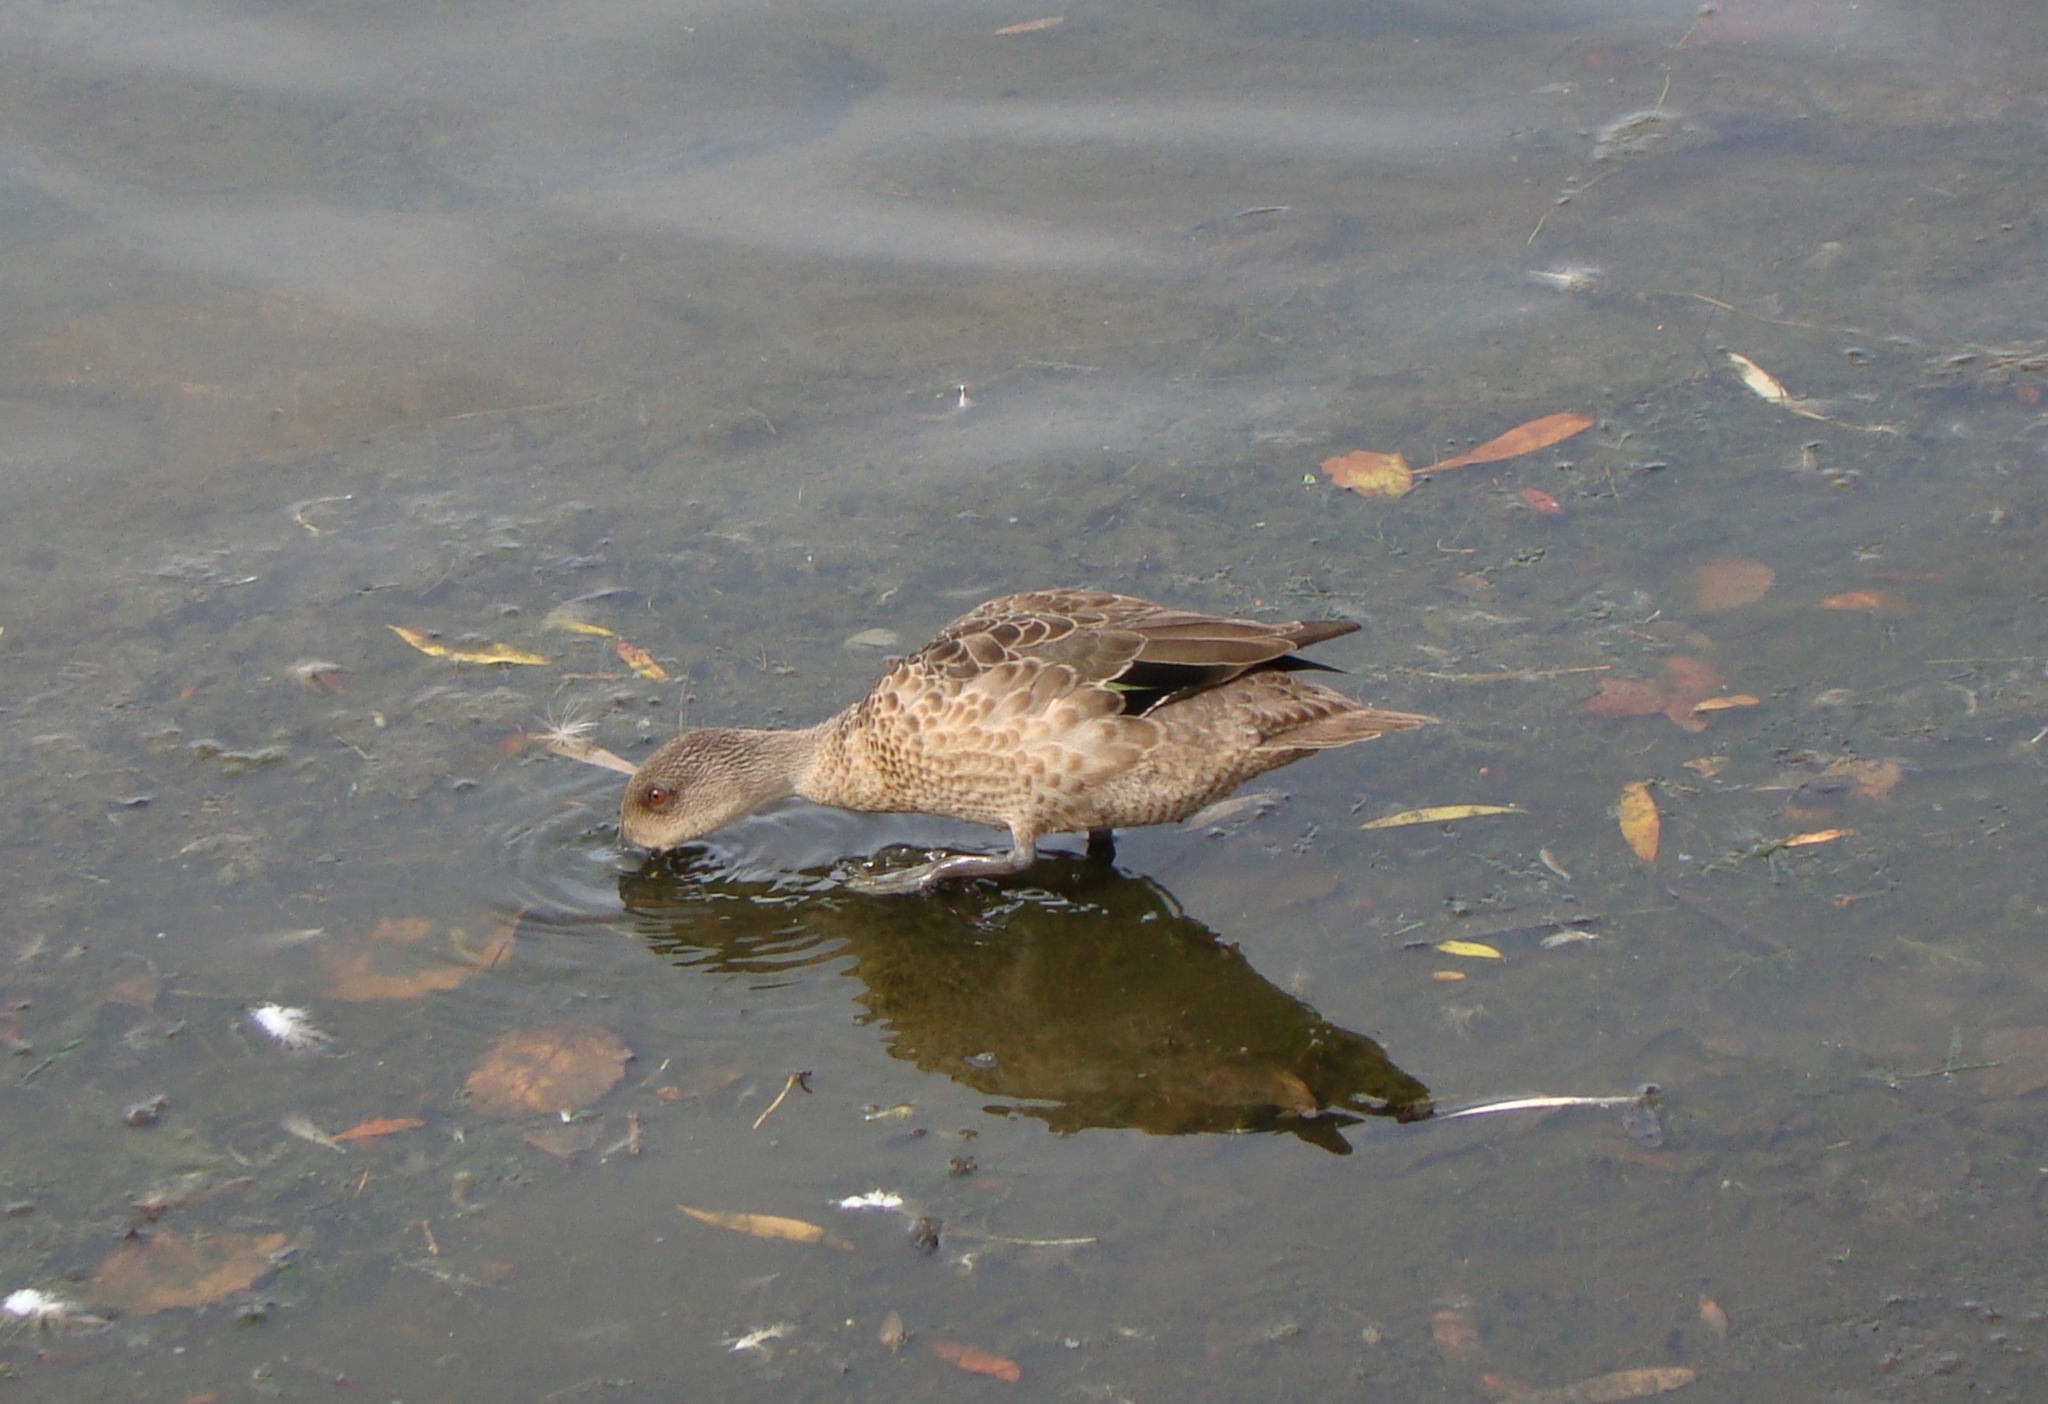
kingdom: Animalia
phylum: Chordata
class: Aves
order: Anseriformes
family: Anatidae
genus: Anas
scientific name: Anas gracilis
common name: Grey teal
